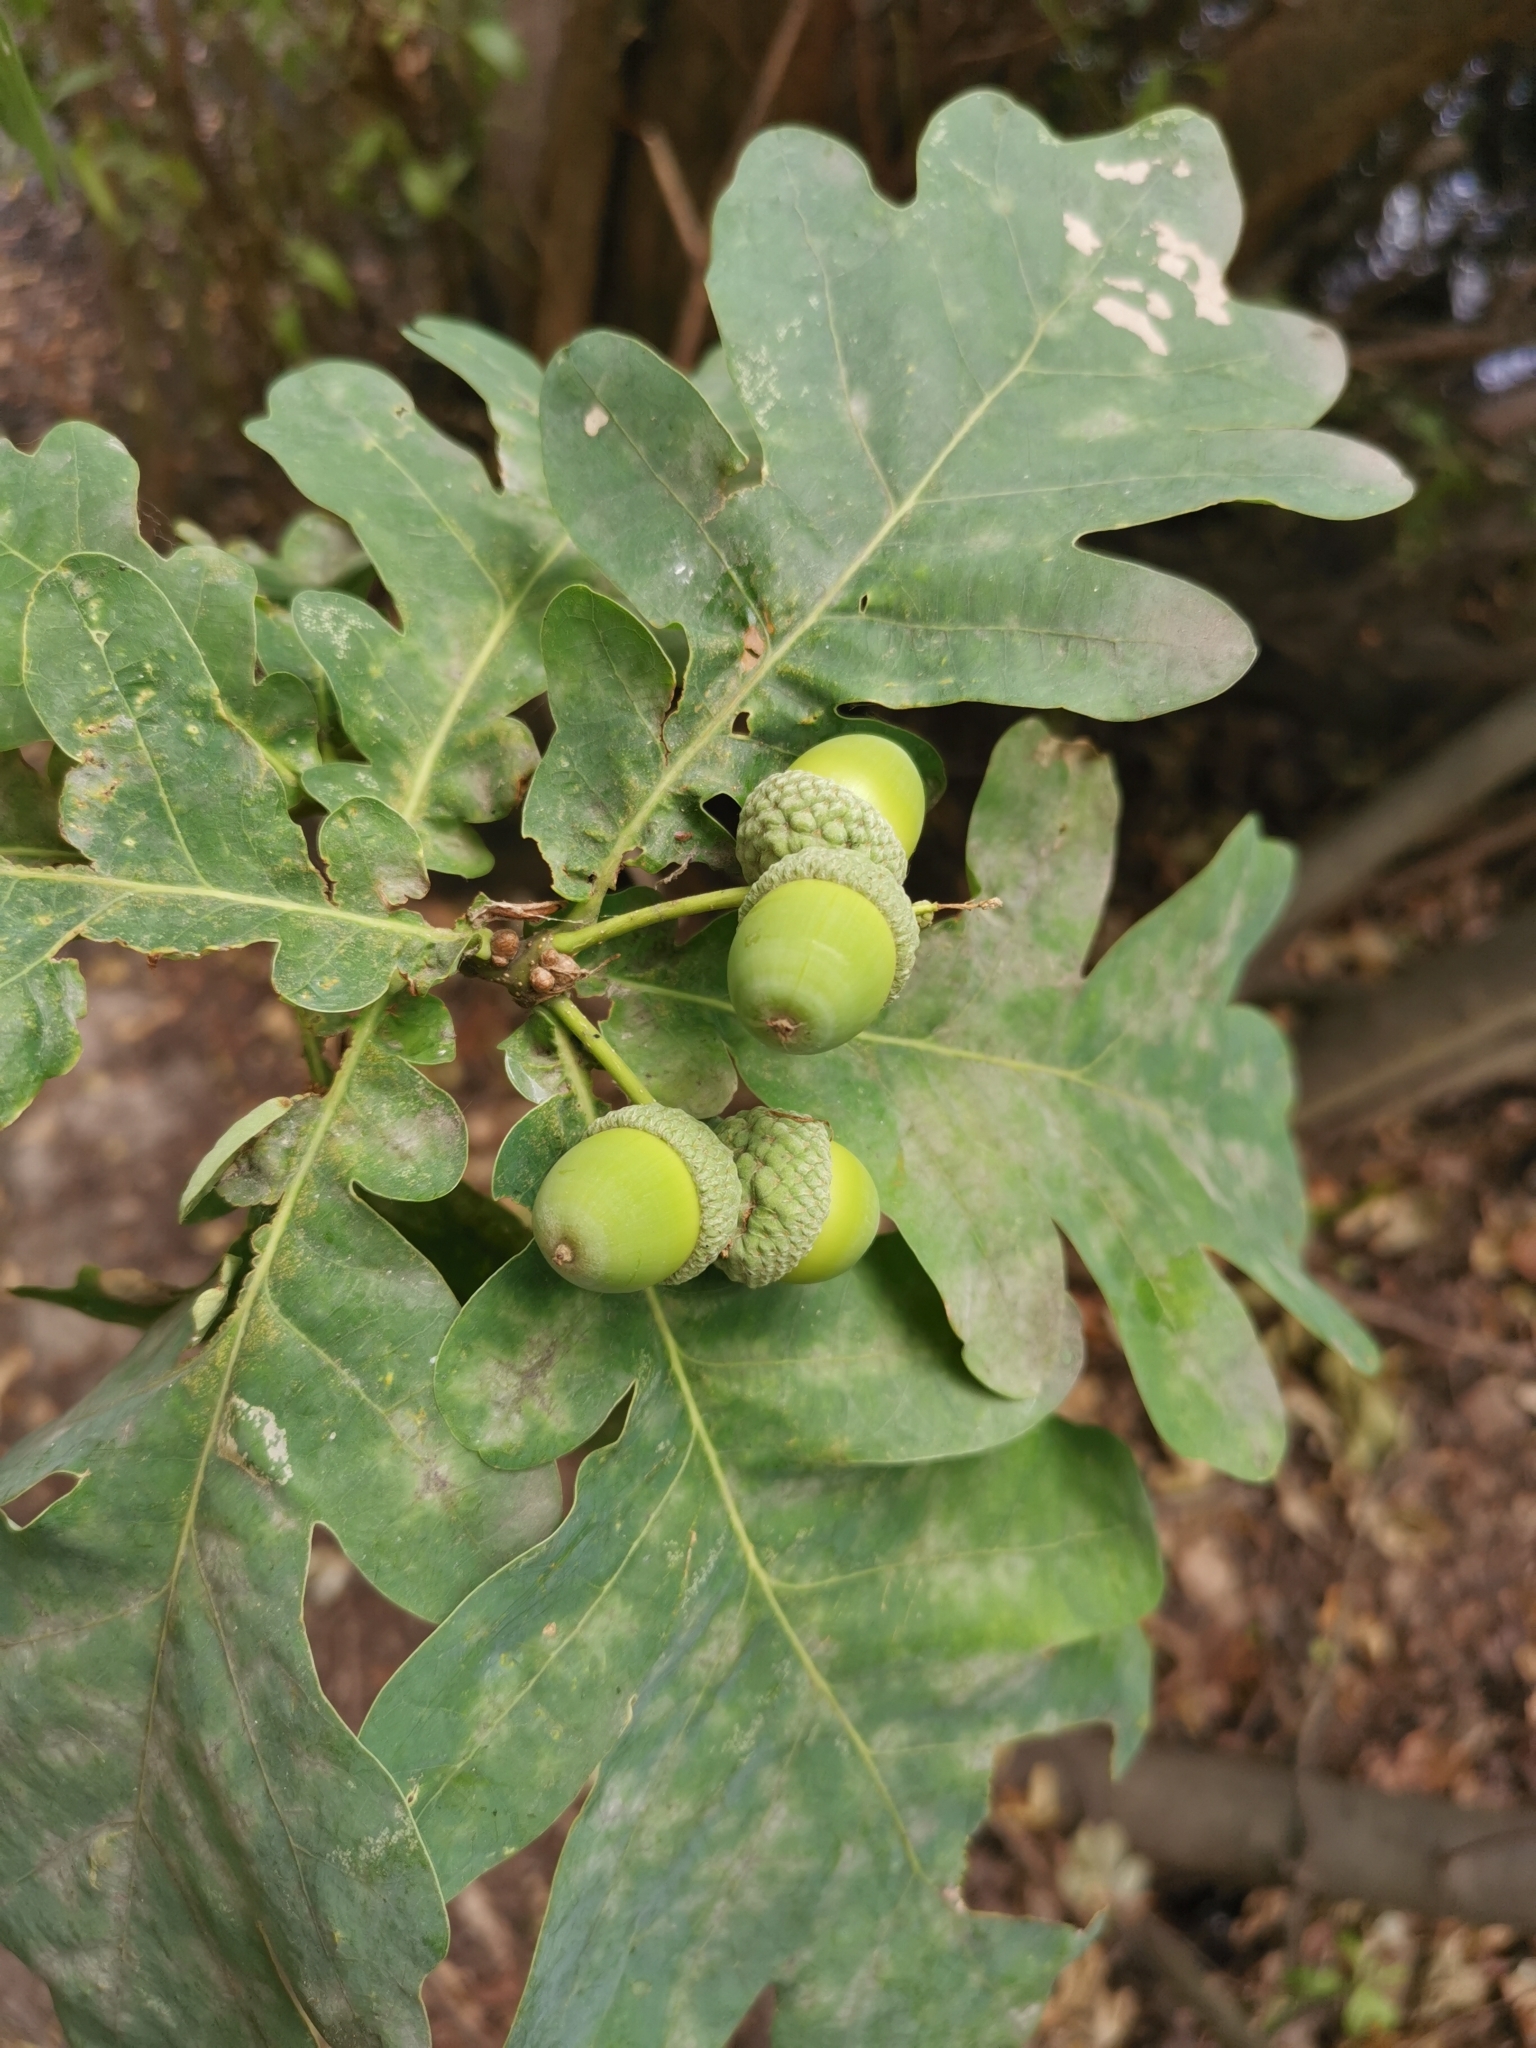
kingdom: Plantae
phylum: Tracheophyta
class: Magnoliopsida
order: Fagales
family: Fagaceae
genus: Quercus
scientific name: Quercus robur
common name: Pedunculate oak
